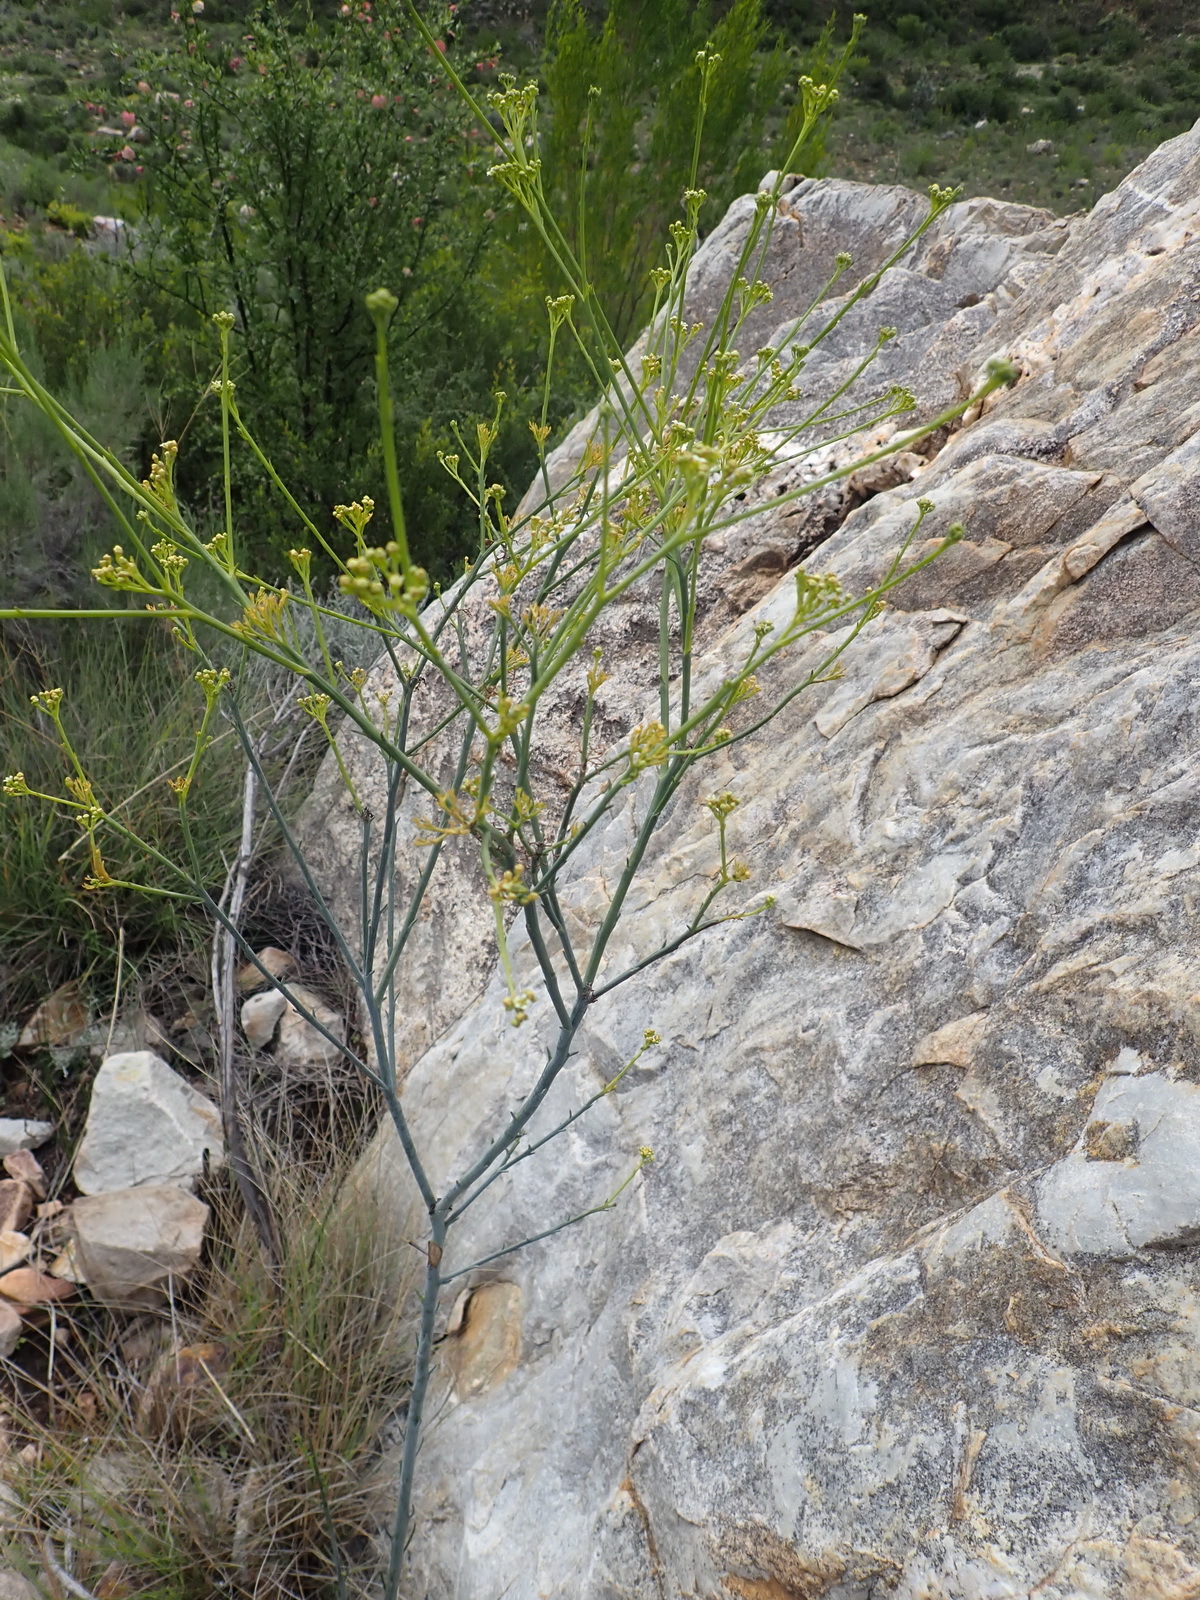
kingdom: Plantae
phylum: Tracheophyta
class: Magnoliopsida
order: Santalales
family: Thesiaceae
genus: Thesium
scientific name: Thesium strictum
